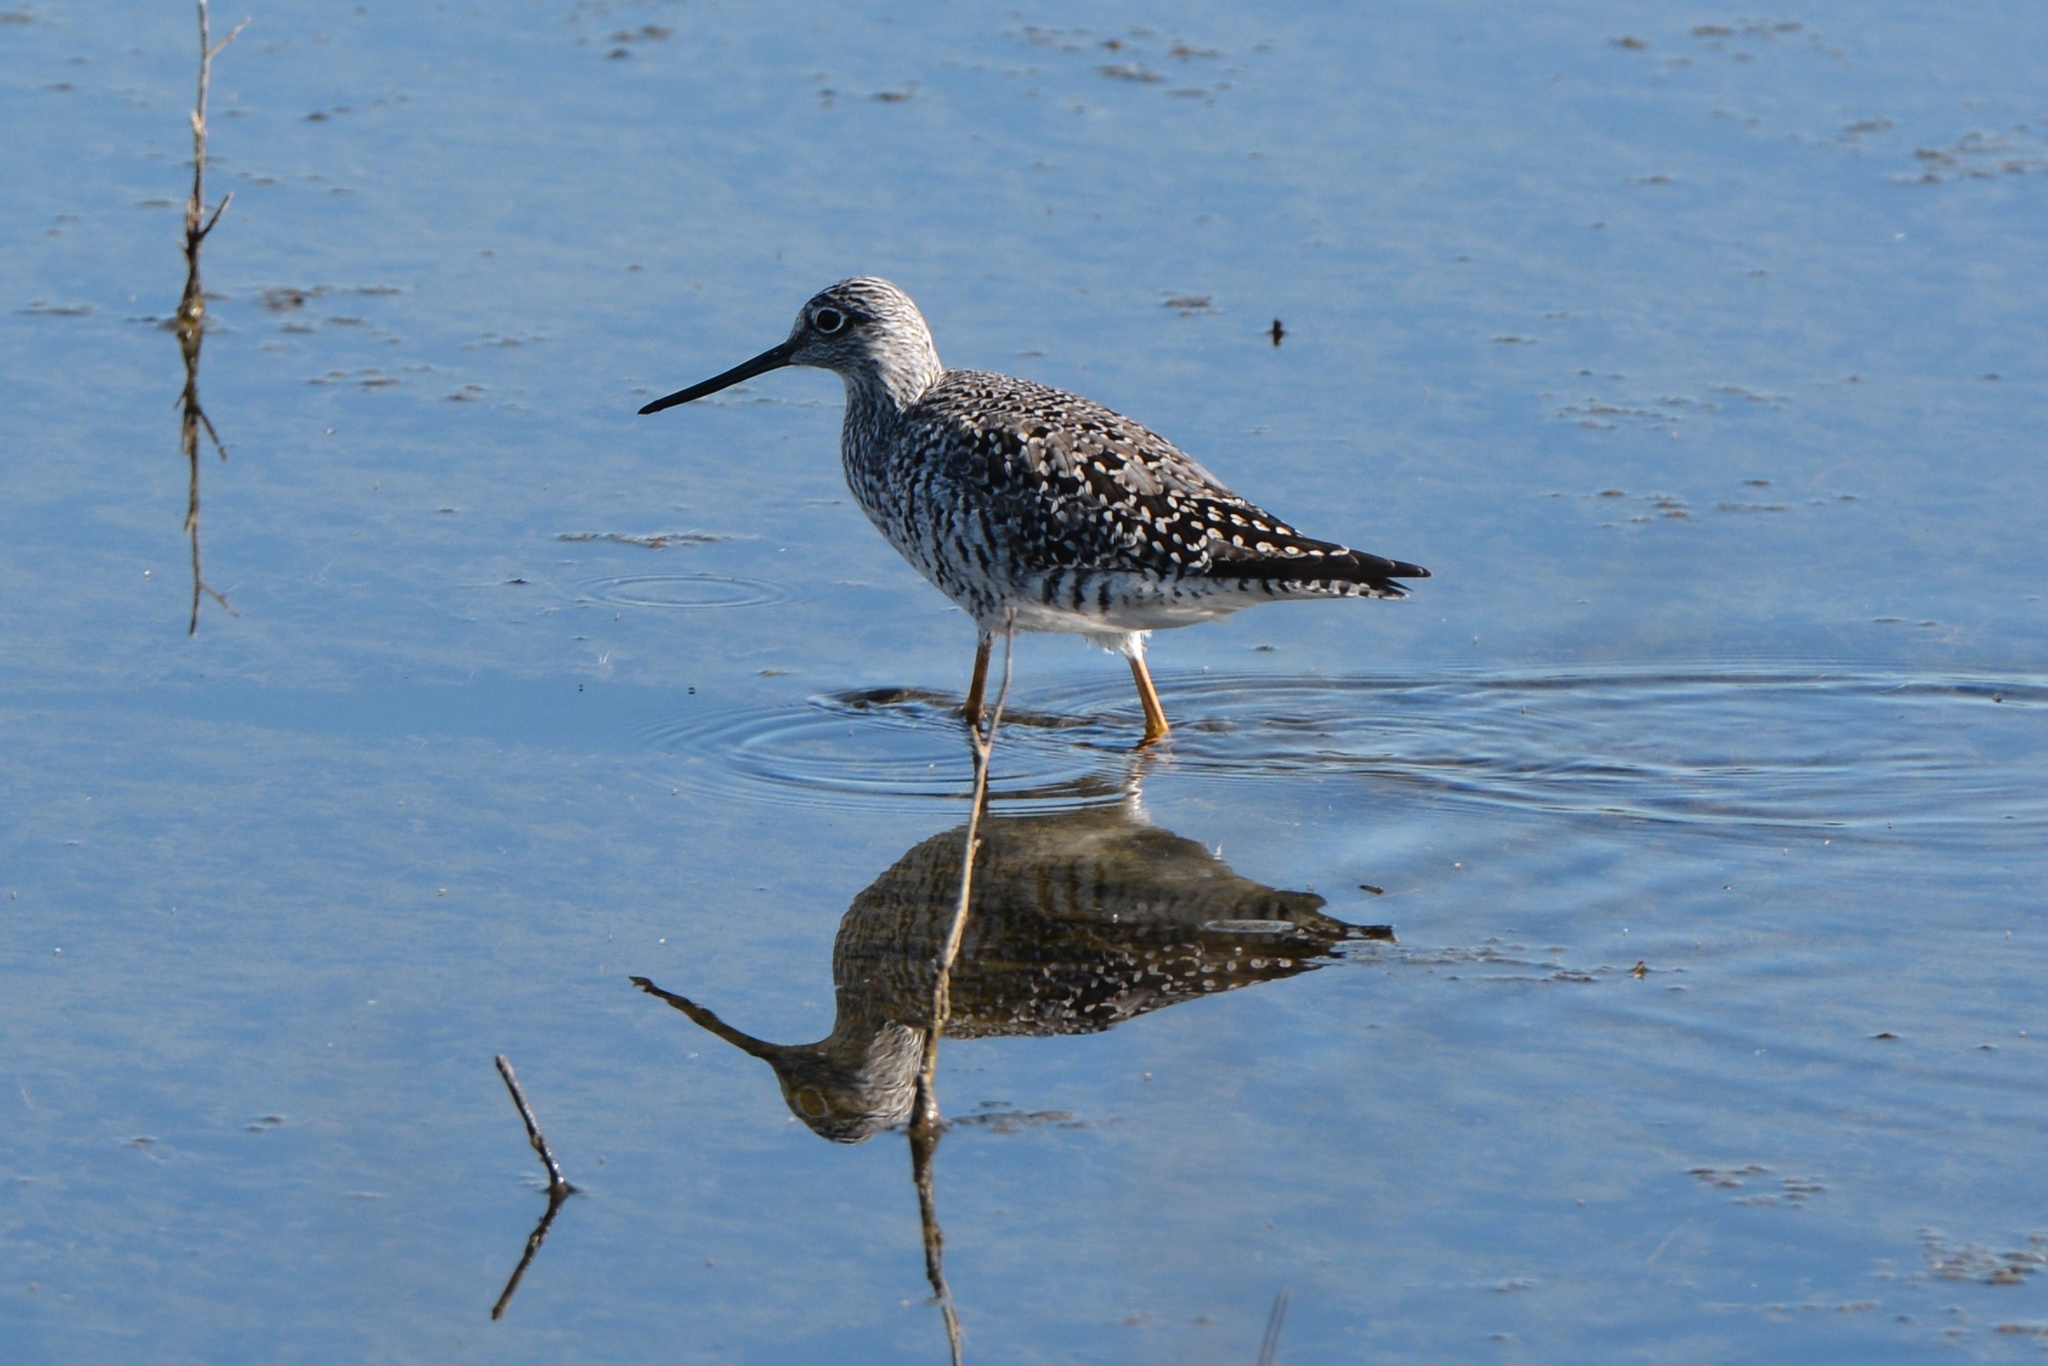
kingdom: Animalia
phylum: Chordata
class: Aves
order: Charadriiformes
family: Scolopacidae
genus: Tringa
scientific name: Tringa melanoleuca
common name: Greater yellowlegs
